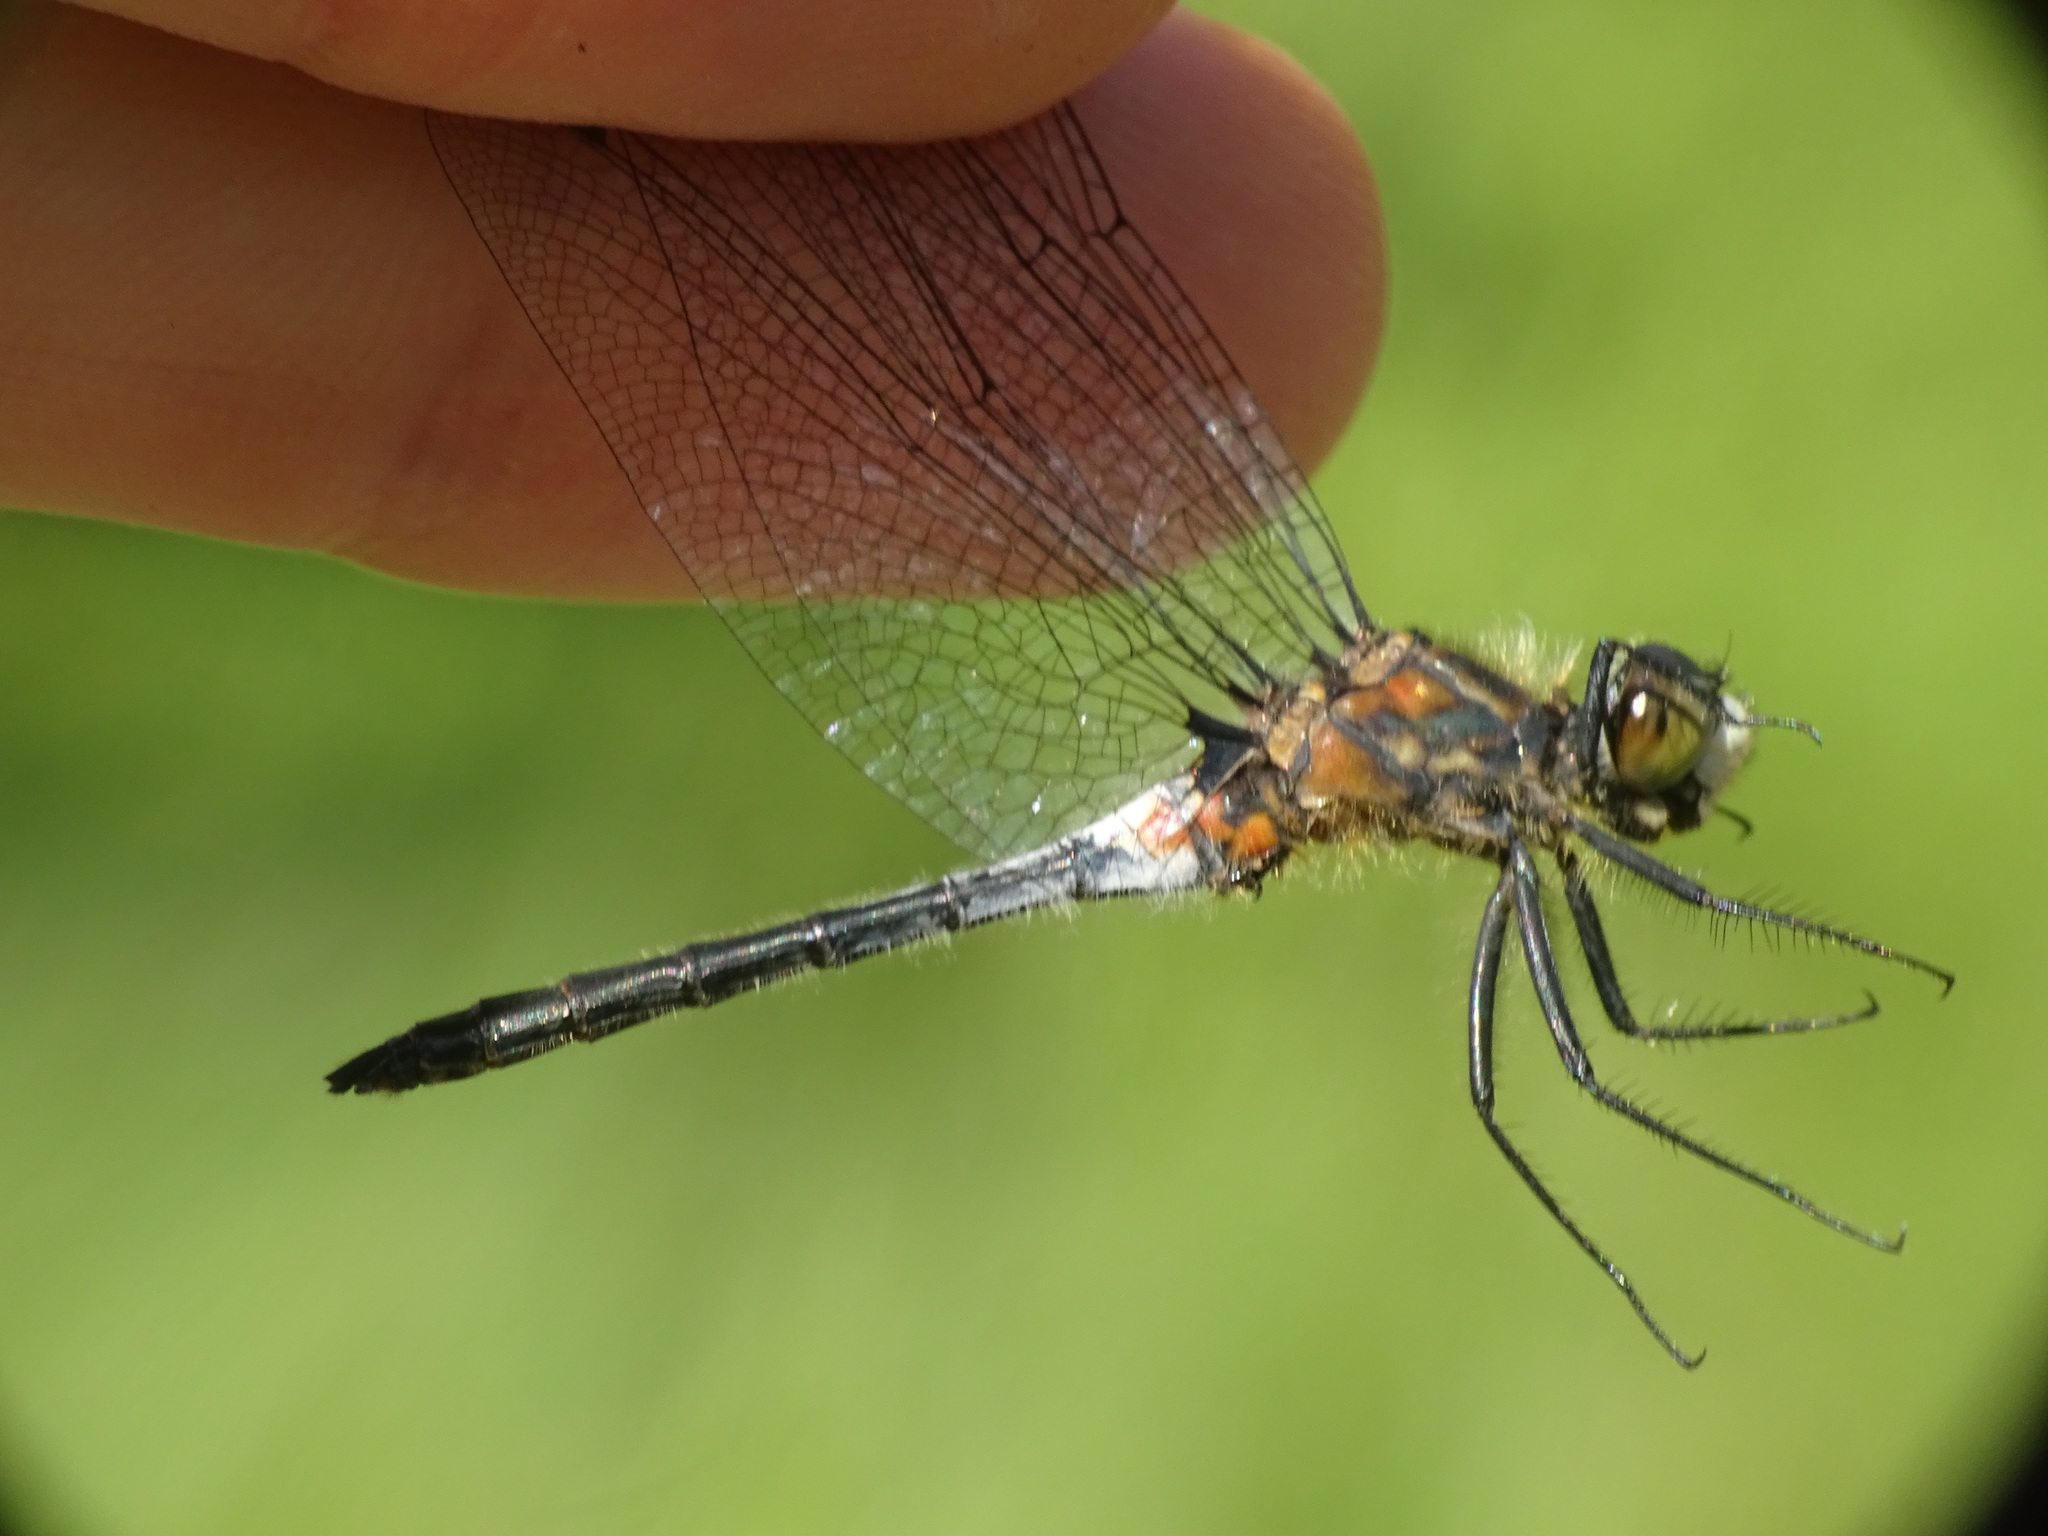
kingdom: Animalia
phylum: Arthropoda
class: Insecta
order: Odonata
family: Libellulidae
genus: Leucorrhinia
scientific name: Leucorrhinia proxima
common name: Belted whiteface
